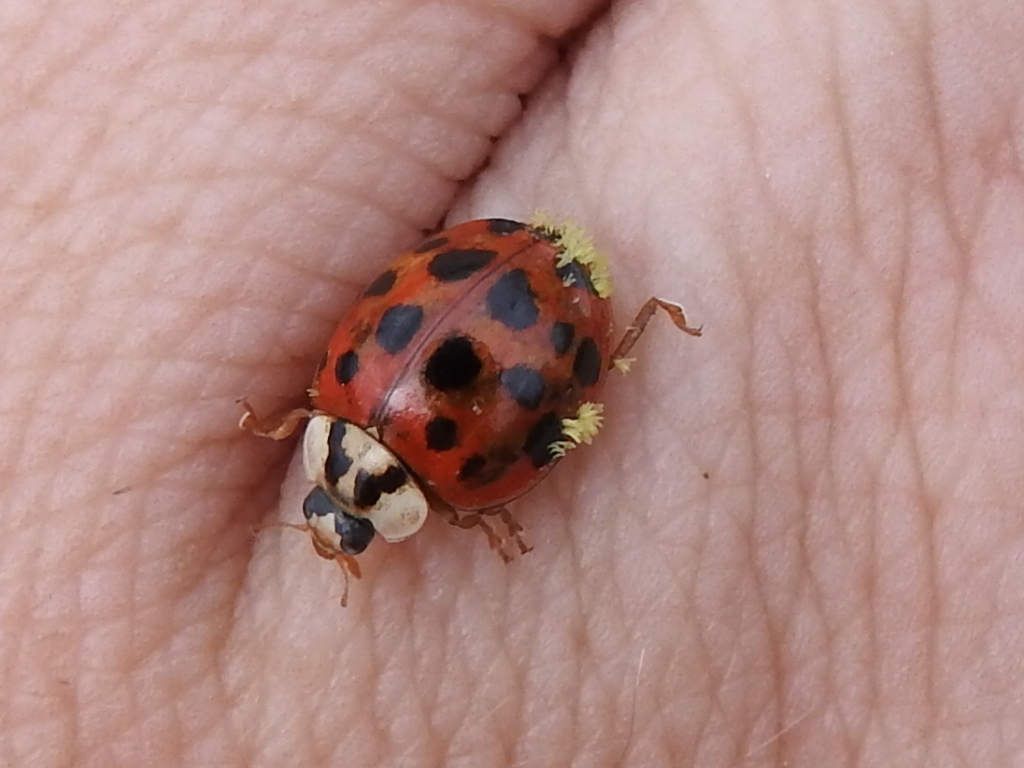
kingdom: Animalia
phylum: Arthropoda
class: Insecta
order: Coleoptera
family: Coccinellidae
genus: Harmonia
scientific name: Harmonia axyridis
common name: Harlequin ladybird
